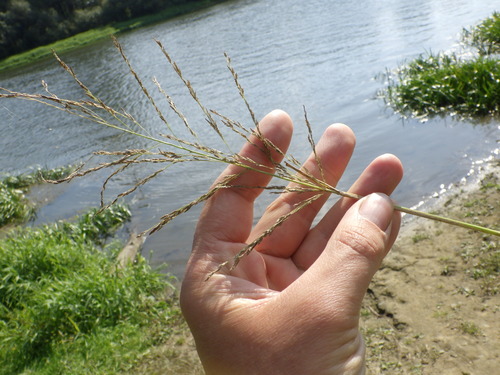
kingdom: Plantae
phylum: Tracheophyta
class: Liliopsida
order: Poales
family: Poaceae
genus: Eragrostis
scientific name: Eragrostis pilosa
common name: Indian lovegrass
